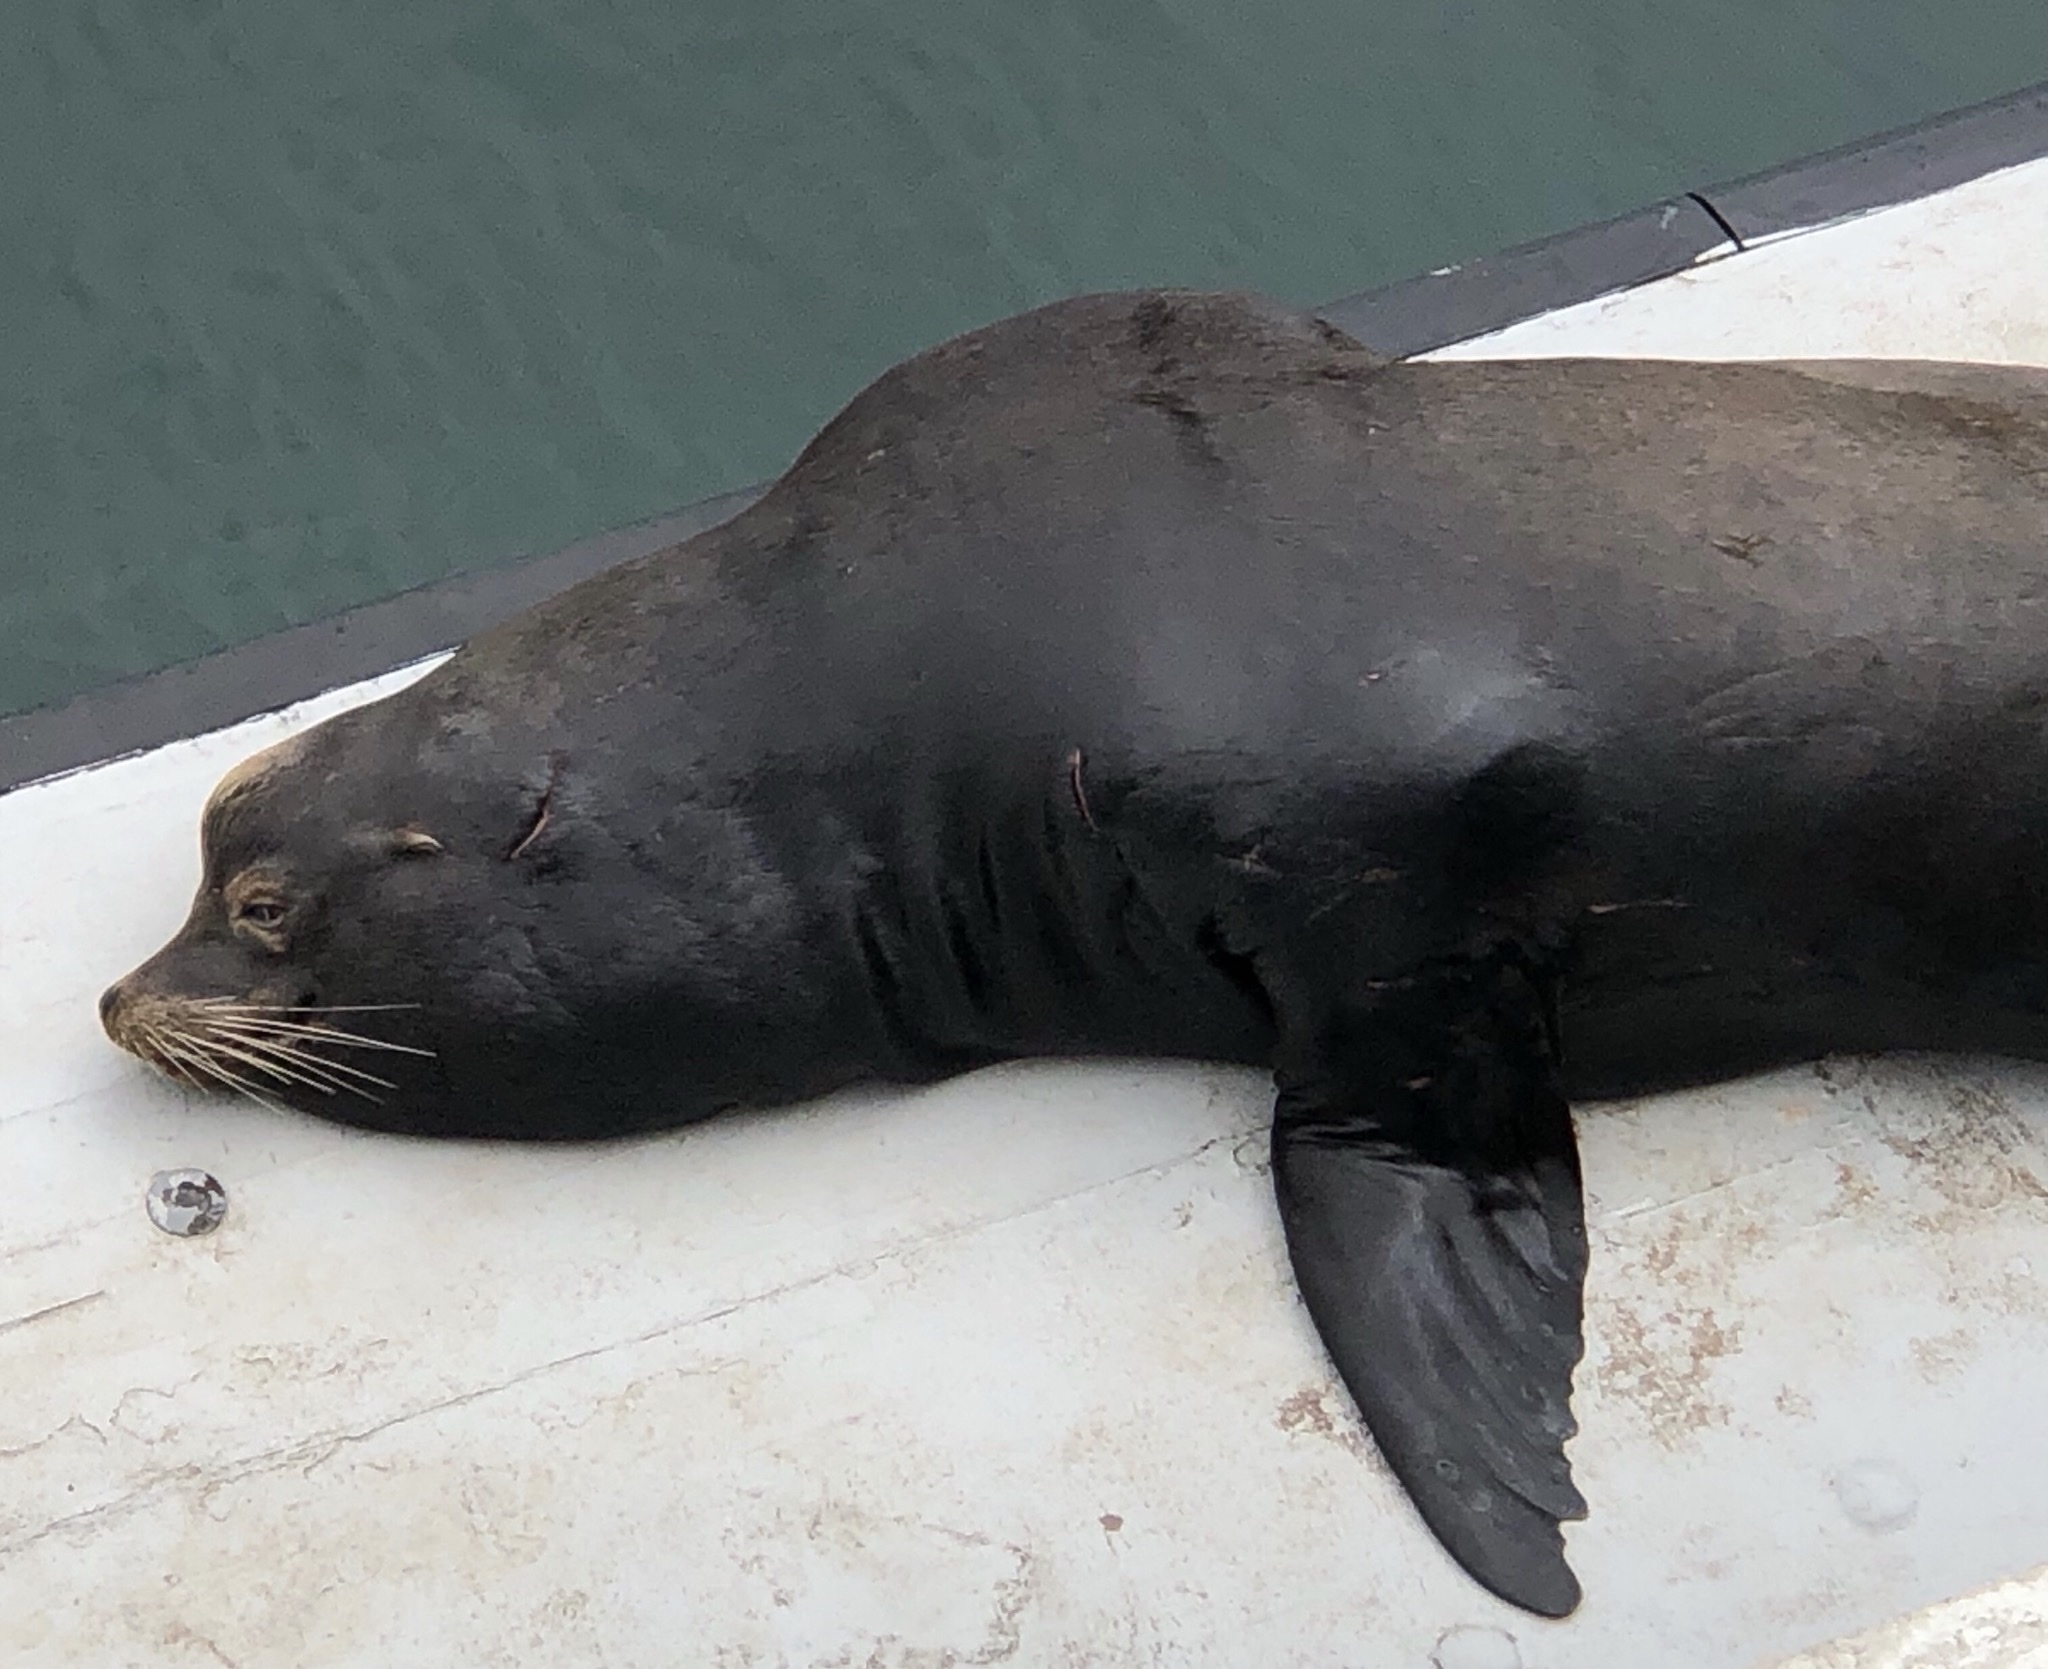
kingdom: Animalia
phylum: Chordata
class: Mammalia
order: Carnivora
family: Otariidae
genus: Zalophus
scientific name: Zalophus californianus
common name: California sea lion
